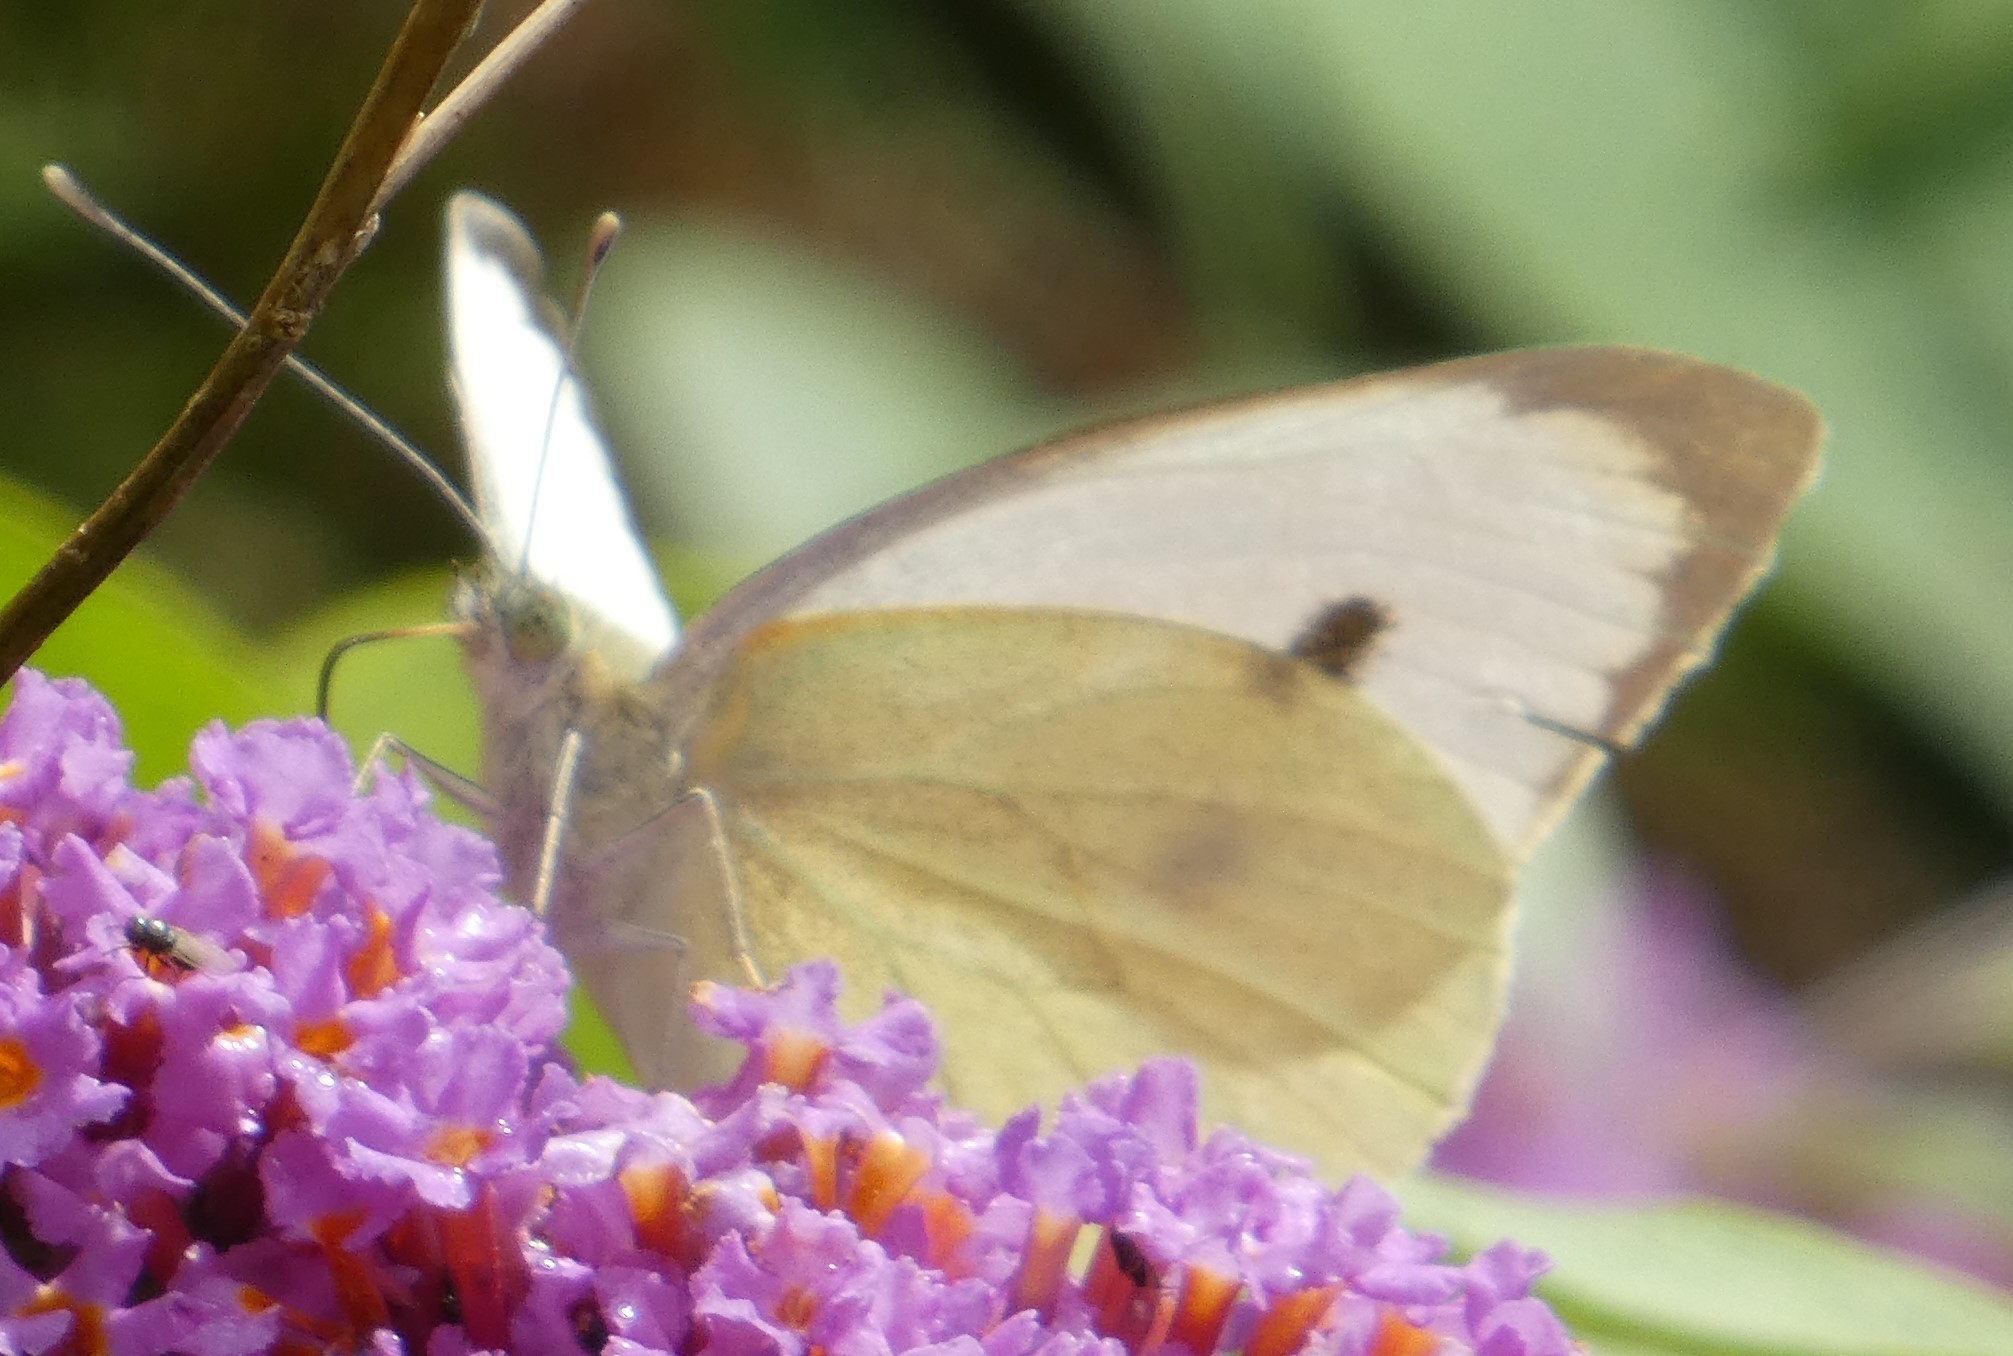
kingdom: Animalia
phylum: Arthropoda
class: Insecta
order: Lepidoptera
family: Pieridae
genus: Pieris
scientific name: Pieris brassicae
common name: Large white
